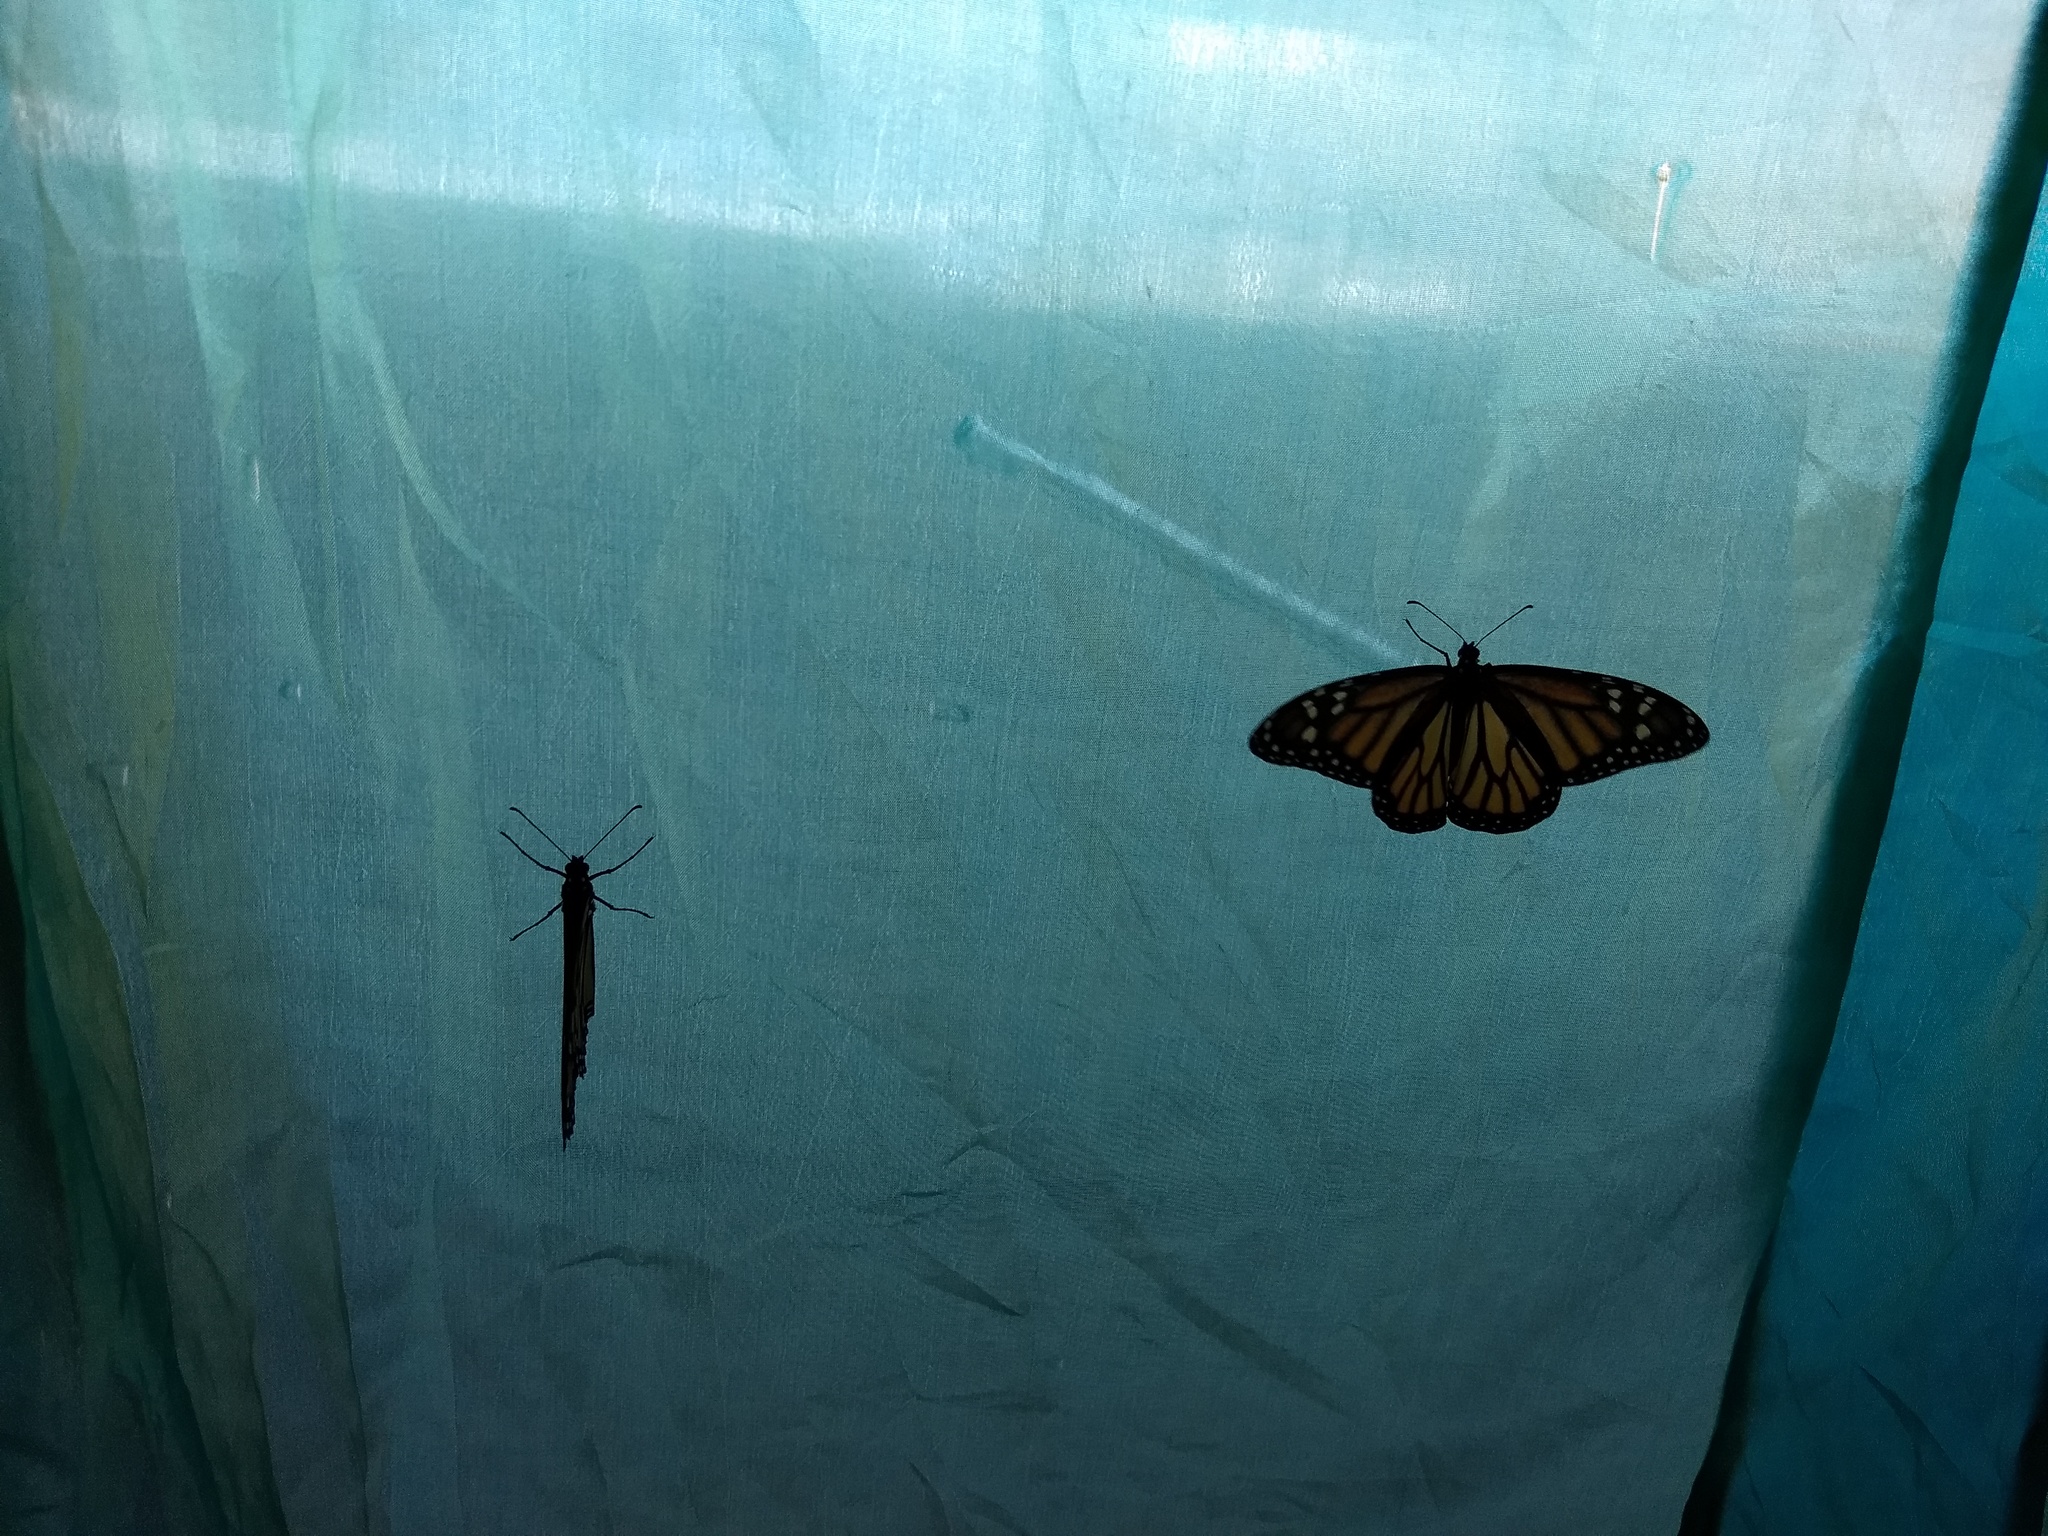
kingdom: Animalia
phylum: Arthropoda
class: Insecta
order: Lepidoptera
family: Nymphalidae
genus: Danaus
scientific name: Danaus plexippus
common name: Monarch
